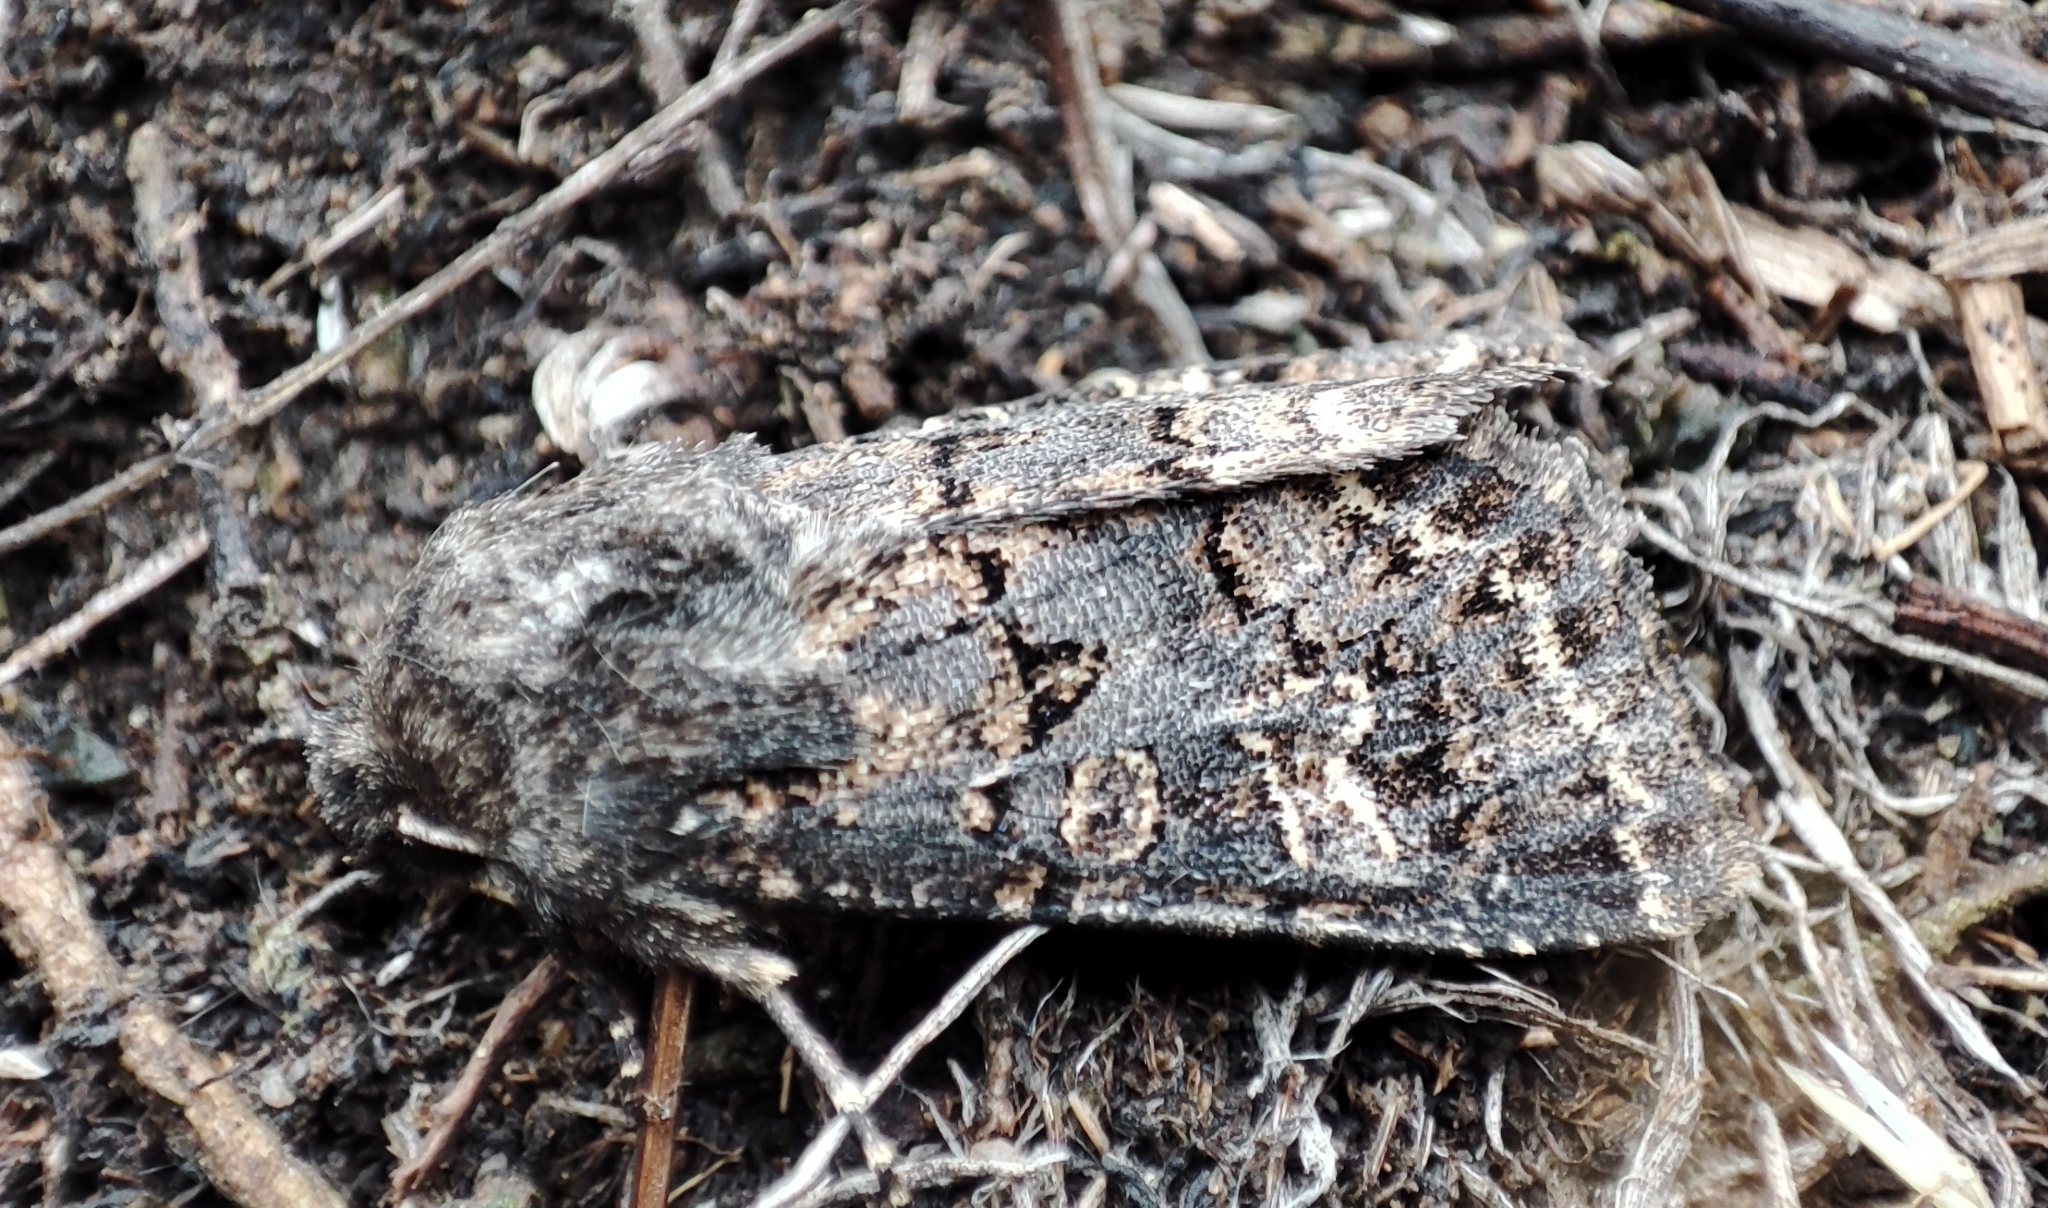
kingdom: Animalia
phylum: Arthropoda
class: Insecta
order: Lepidoptera
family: Noctuidae
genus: Tholera
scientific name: Tholera cespitis
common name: Hedge rustic
